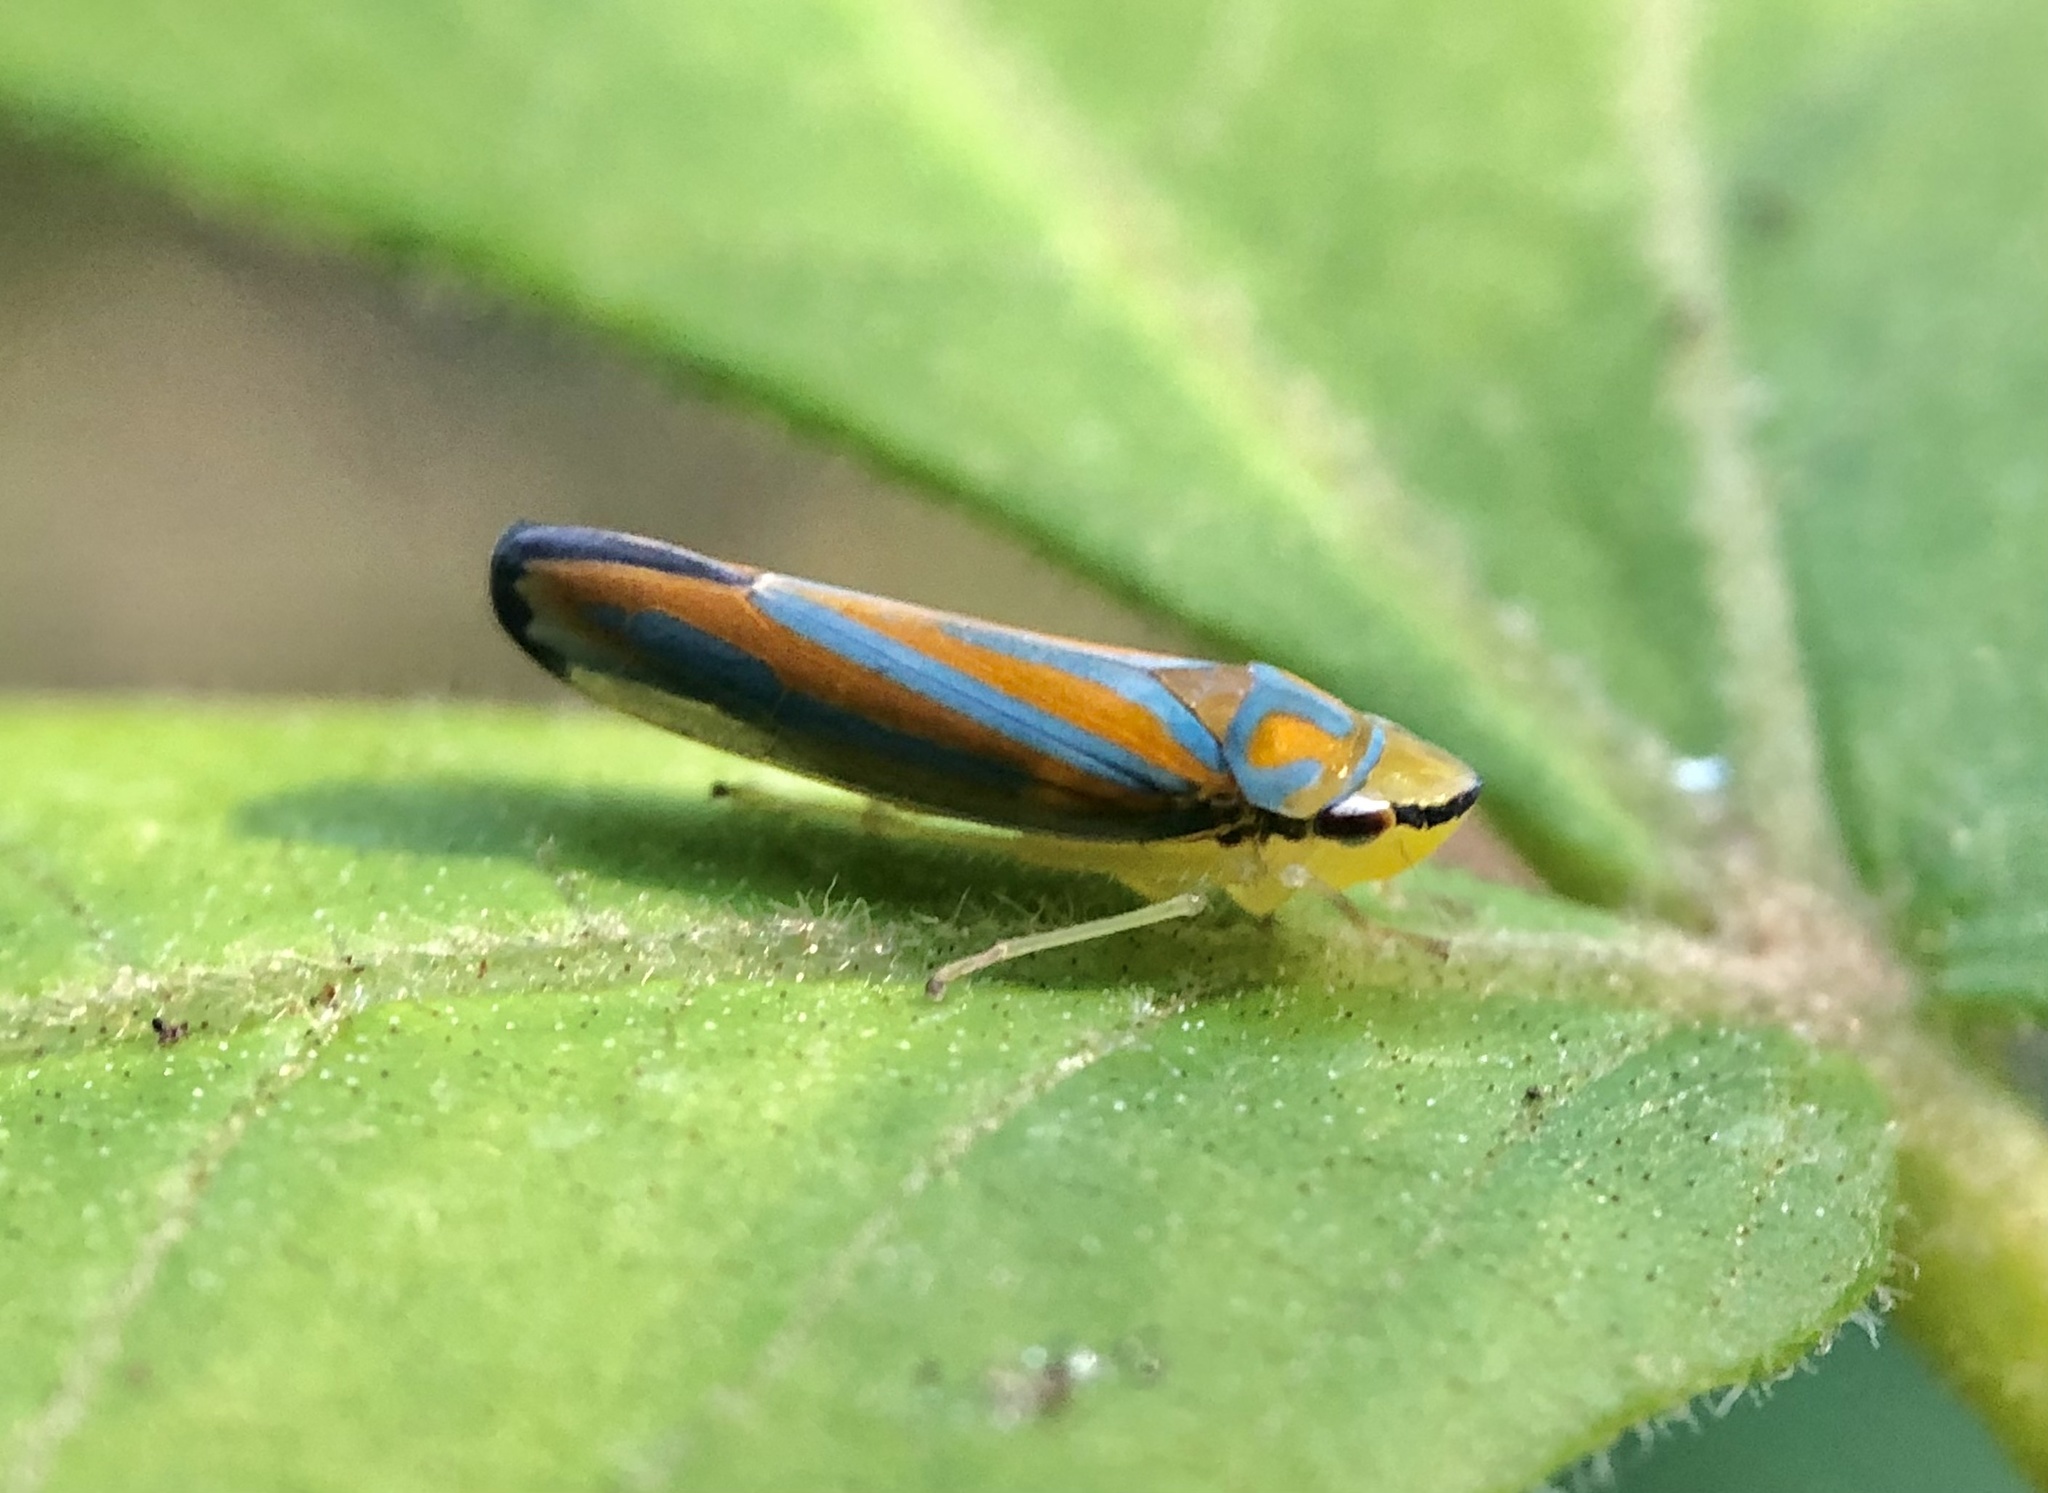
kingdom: Animalia
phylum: Arthropoda
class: Insecta
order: Hemiptera
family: Cicadellidae
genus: Graphocephala
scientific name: Graphocephala coccinea
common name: Candy-striped leafhopper
